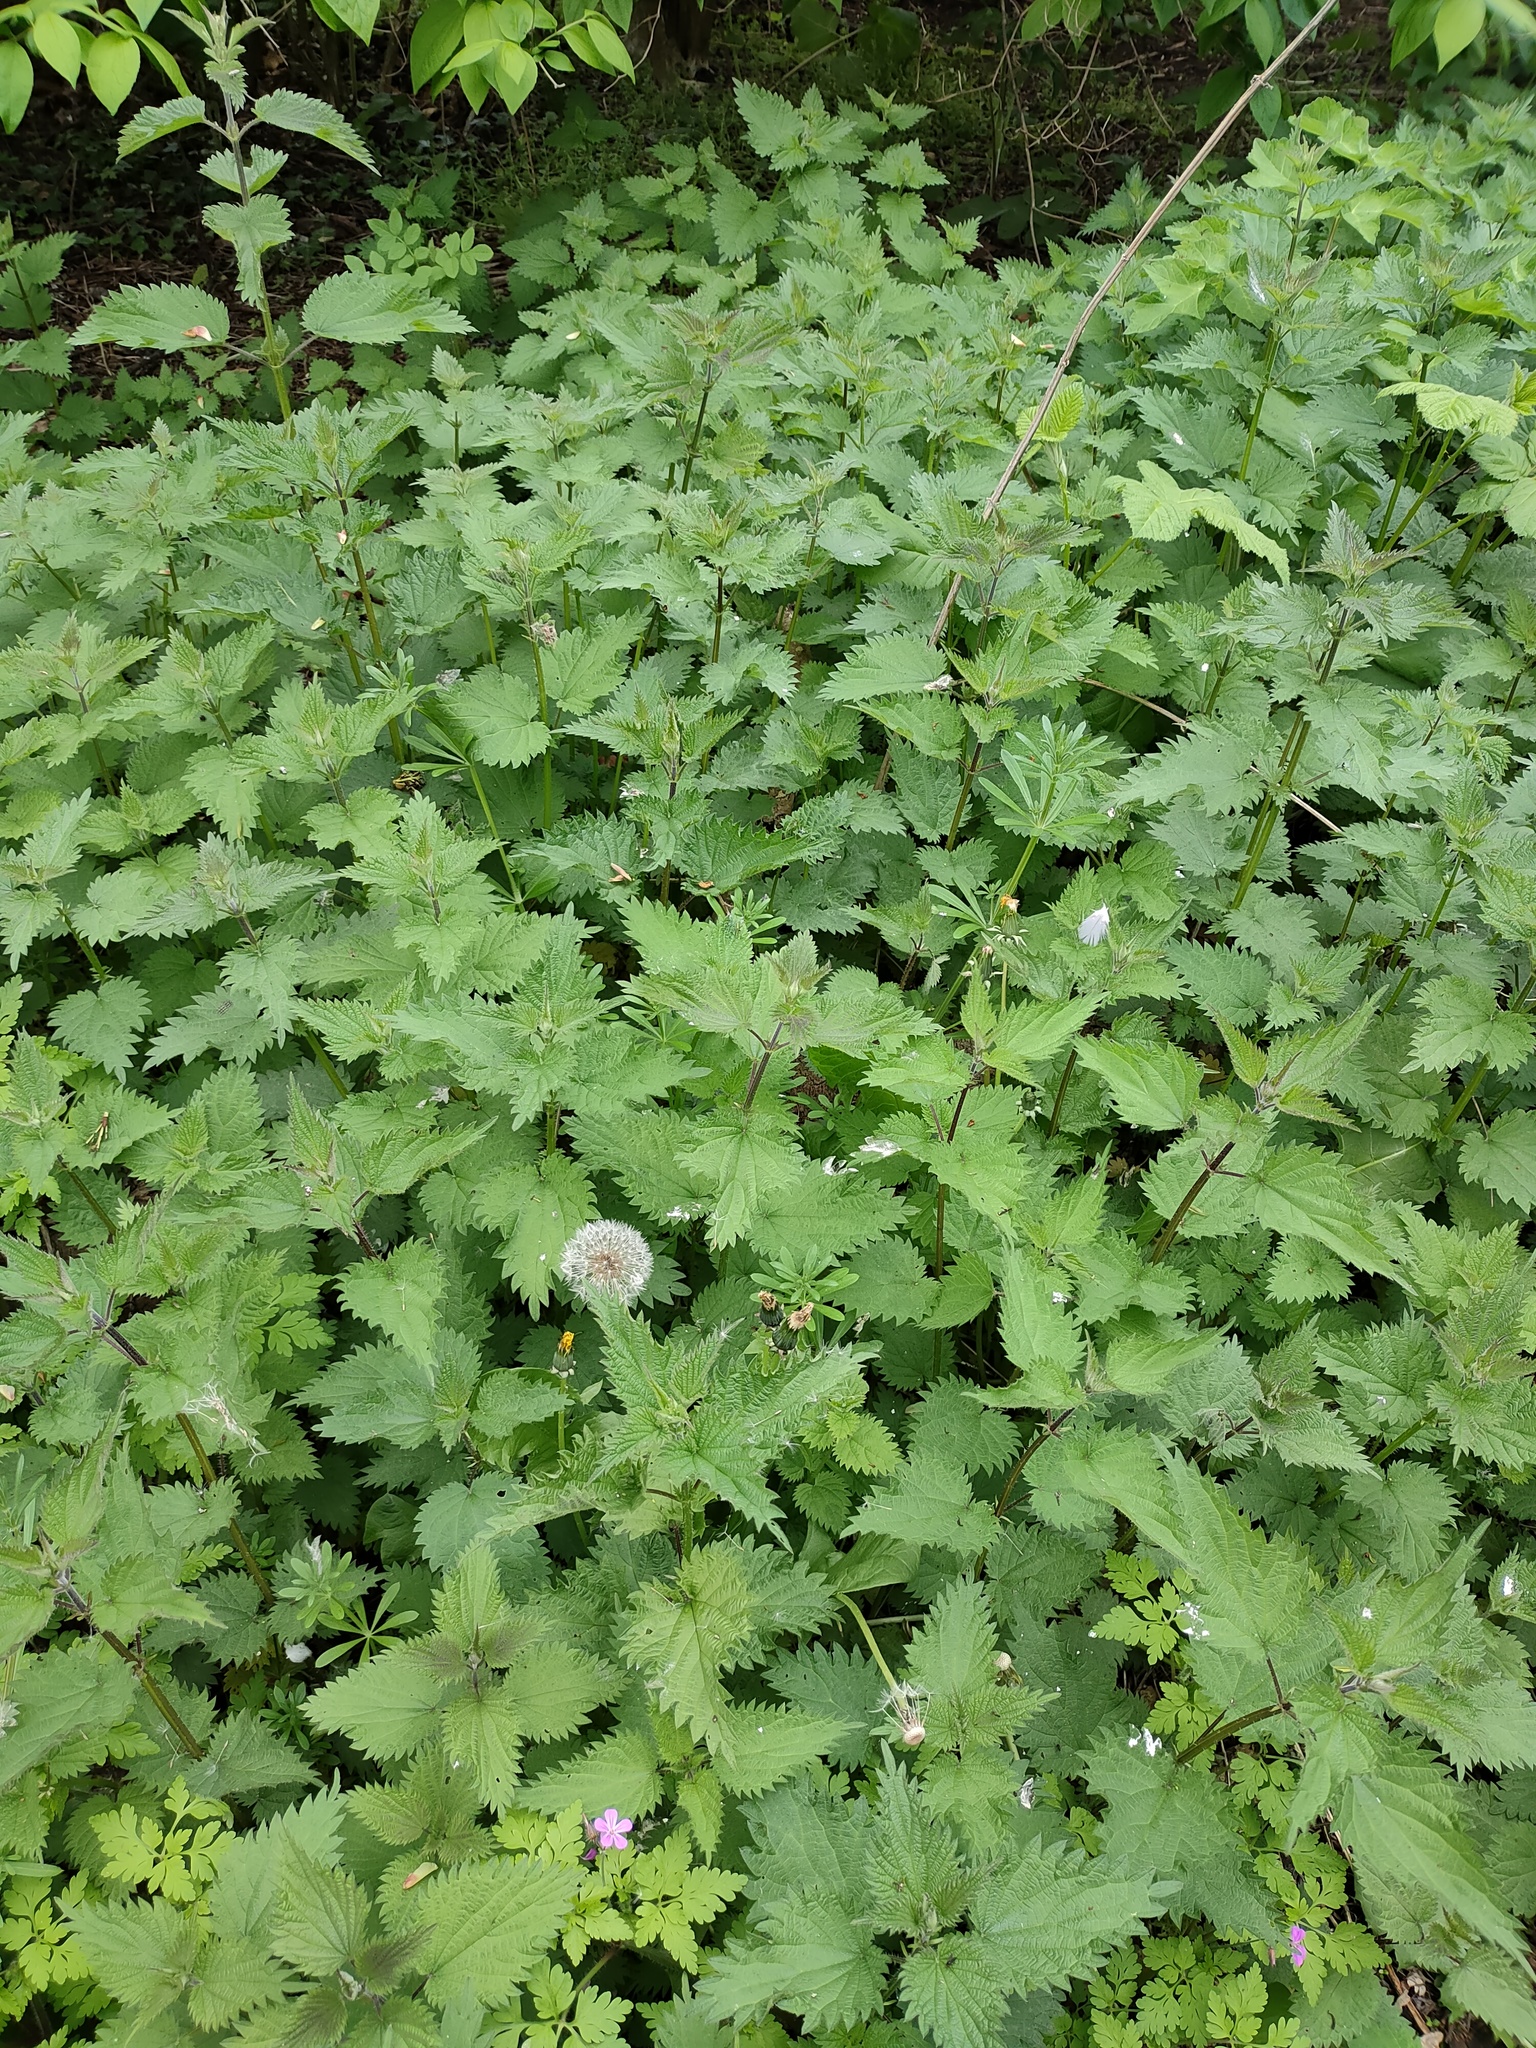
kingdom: Plantae
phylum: Tracheophyta
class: Magnoliopsida
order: Rosales
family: Urticaceae
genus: Urtica
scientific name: Urtica dioica
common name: Common nettle
